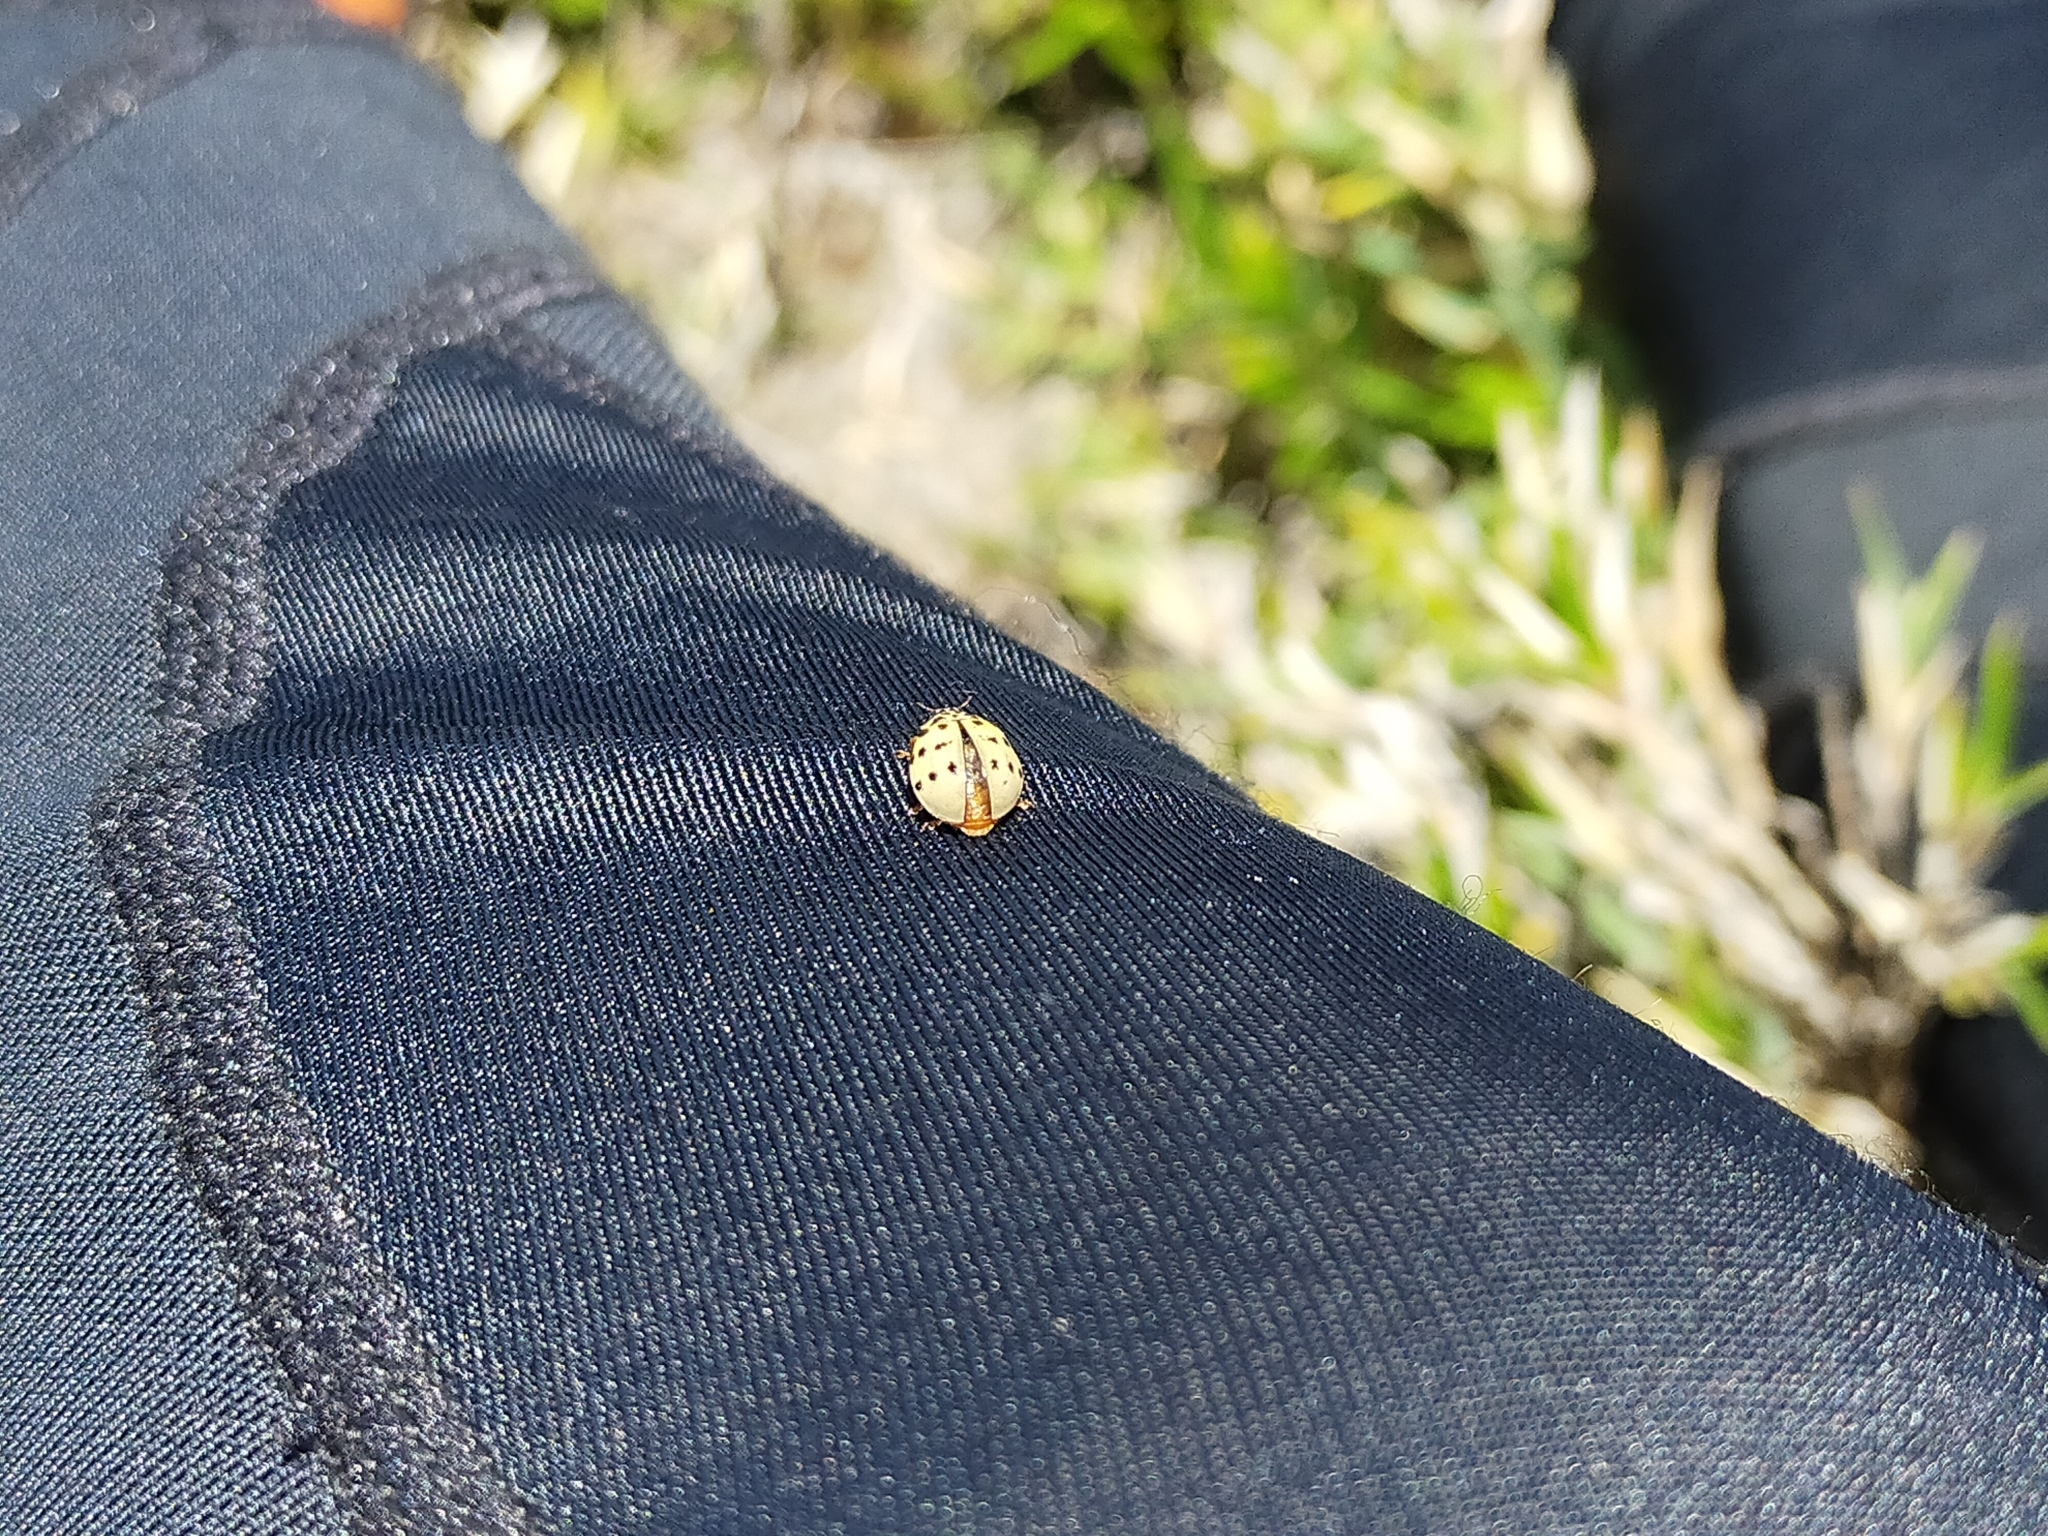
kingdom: Animalia
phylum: Arthropoda
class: Insecta
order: Coleoptera
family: Coccinellidae
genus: Harmonia
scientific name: Harmonia quadripunctata
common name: Cream-streaked ladybird
